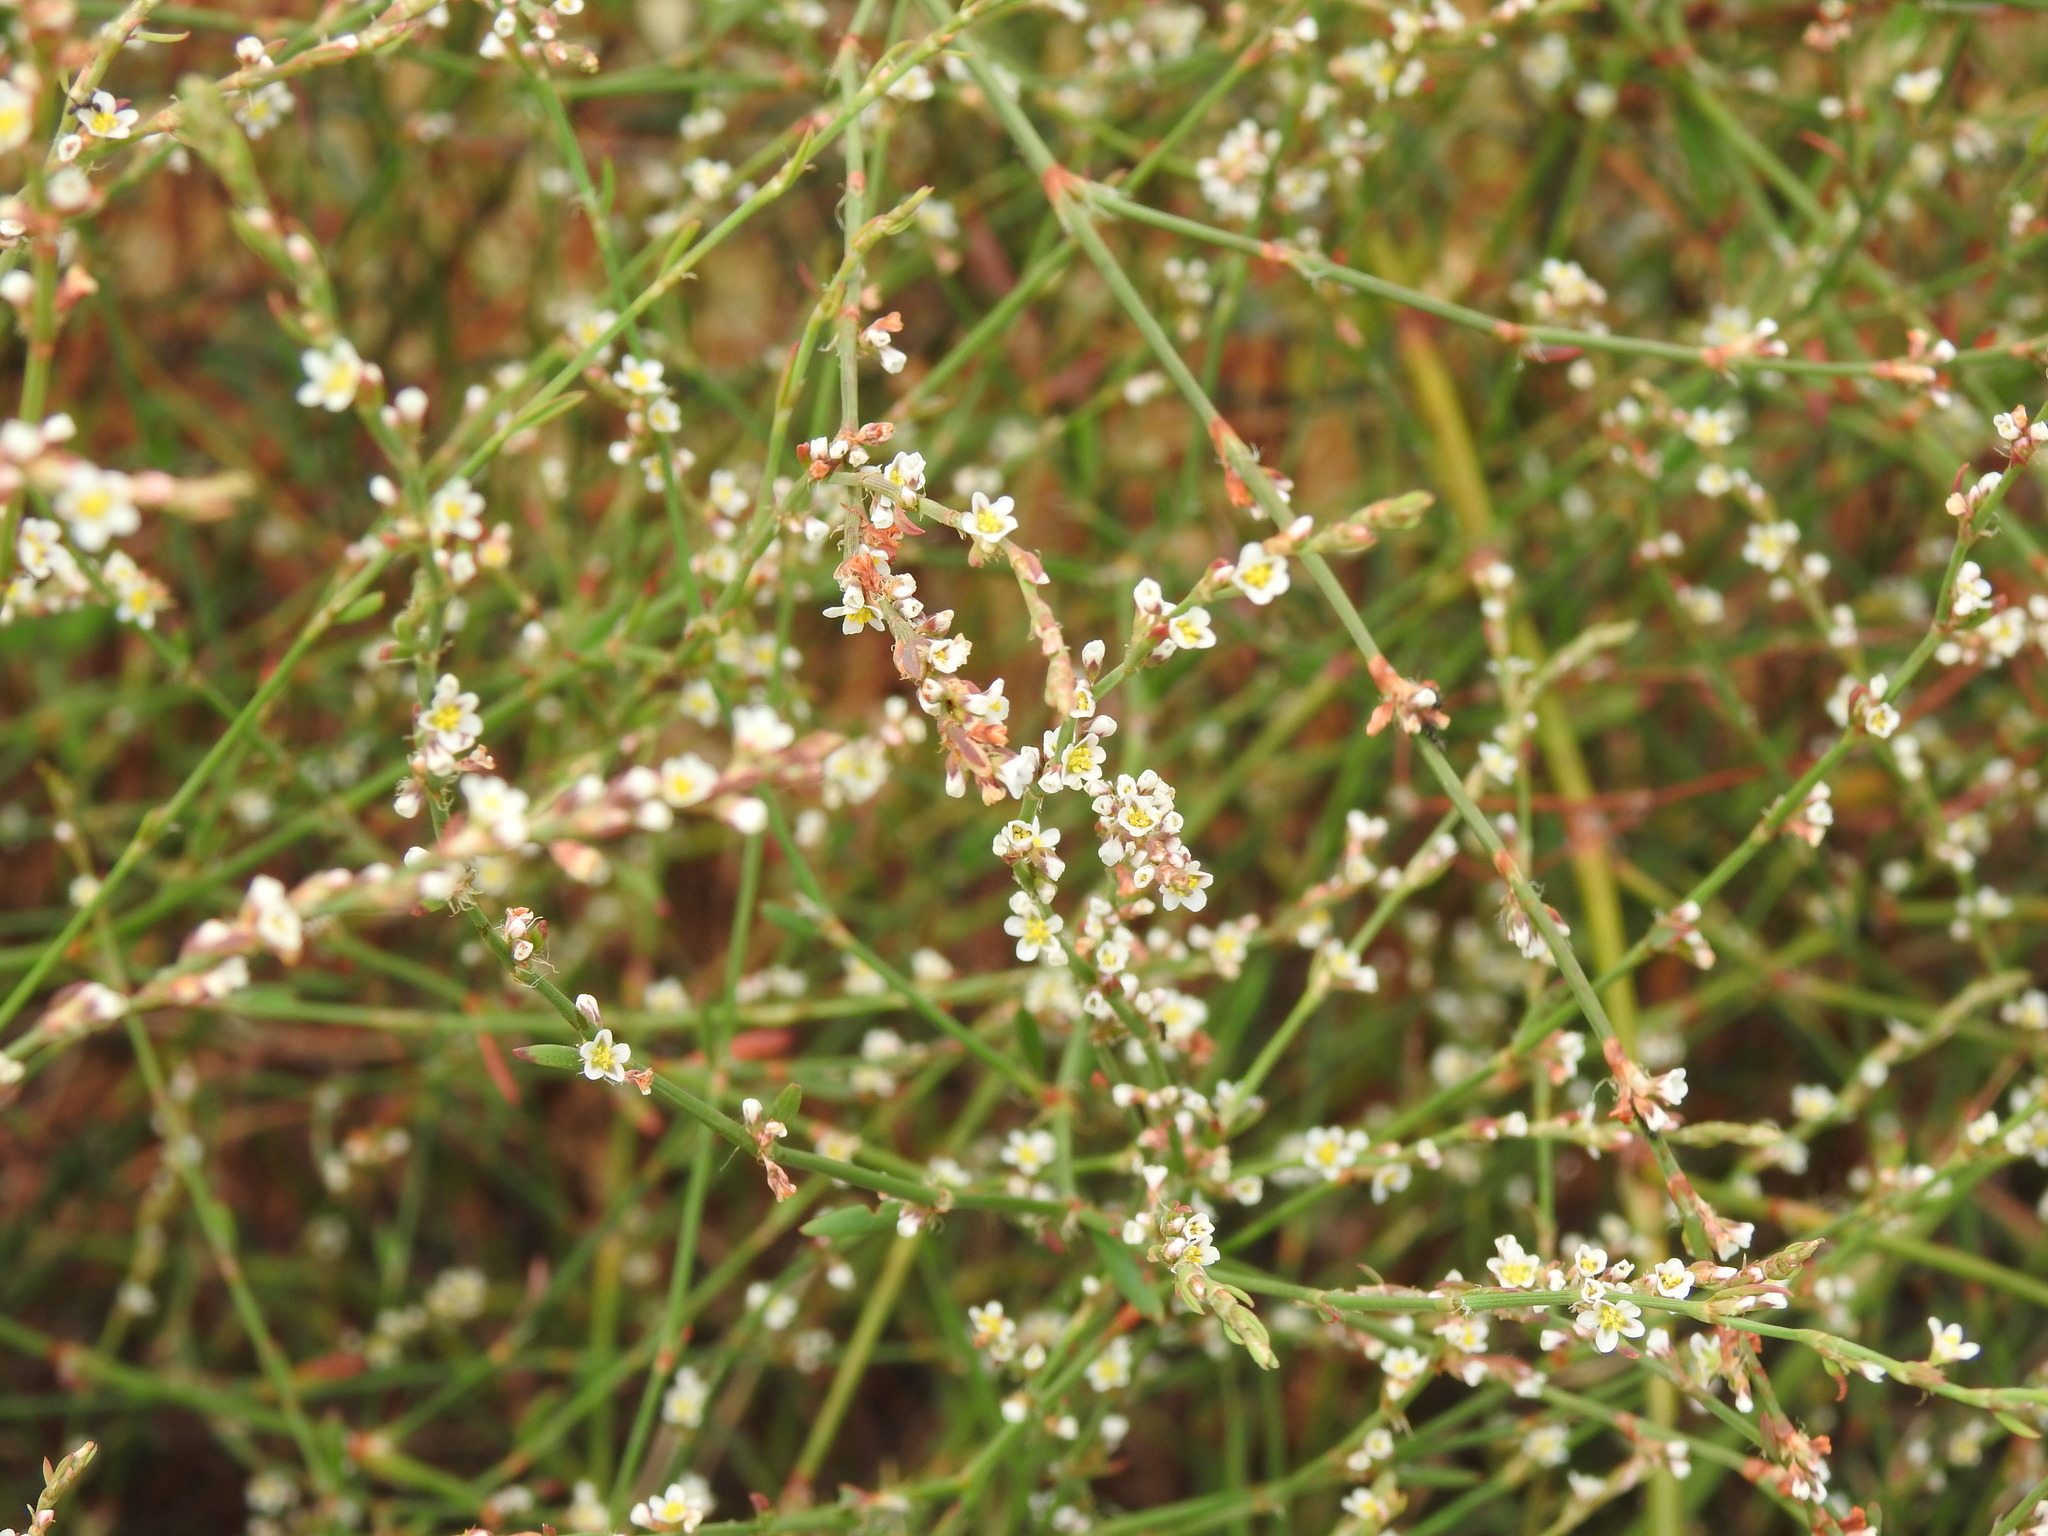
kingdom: Plantae
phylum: Tracheophyta
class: Magnoliopsida
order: Caryophyllales
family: Polygonaceae
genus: Polygonum
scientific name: Polygonum equisetiforme
